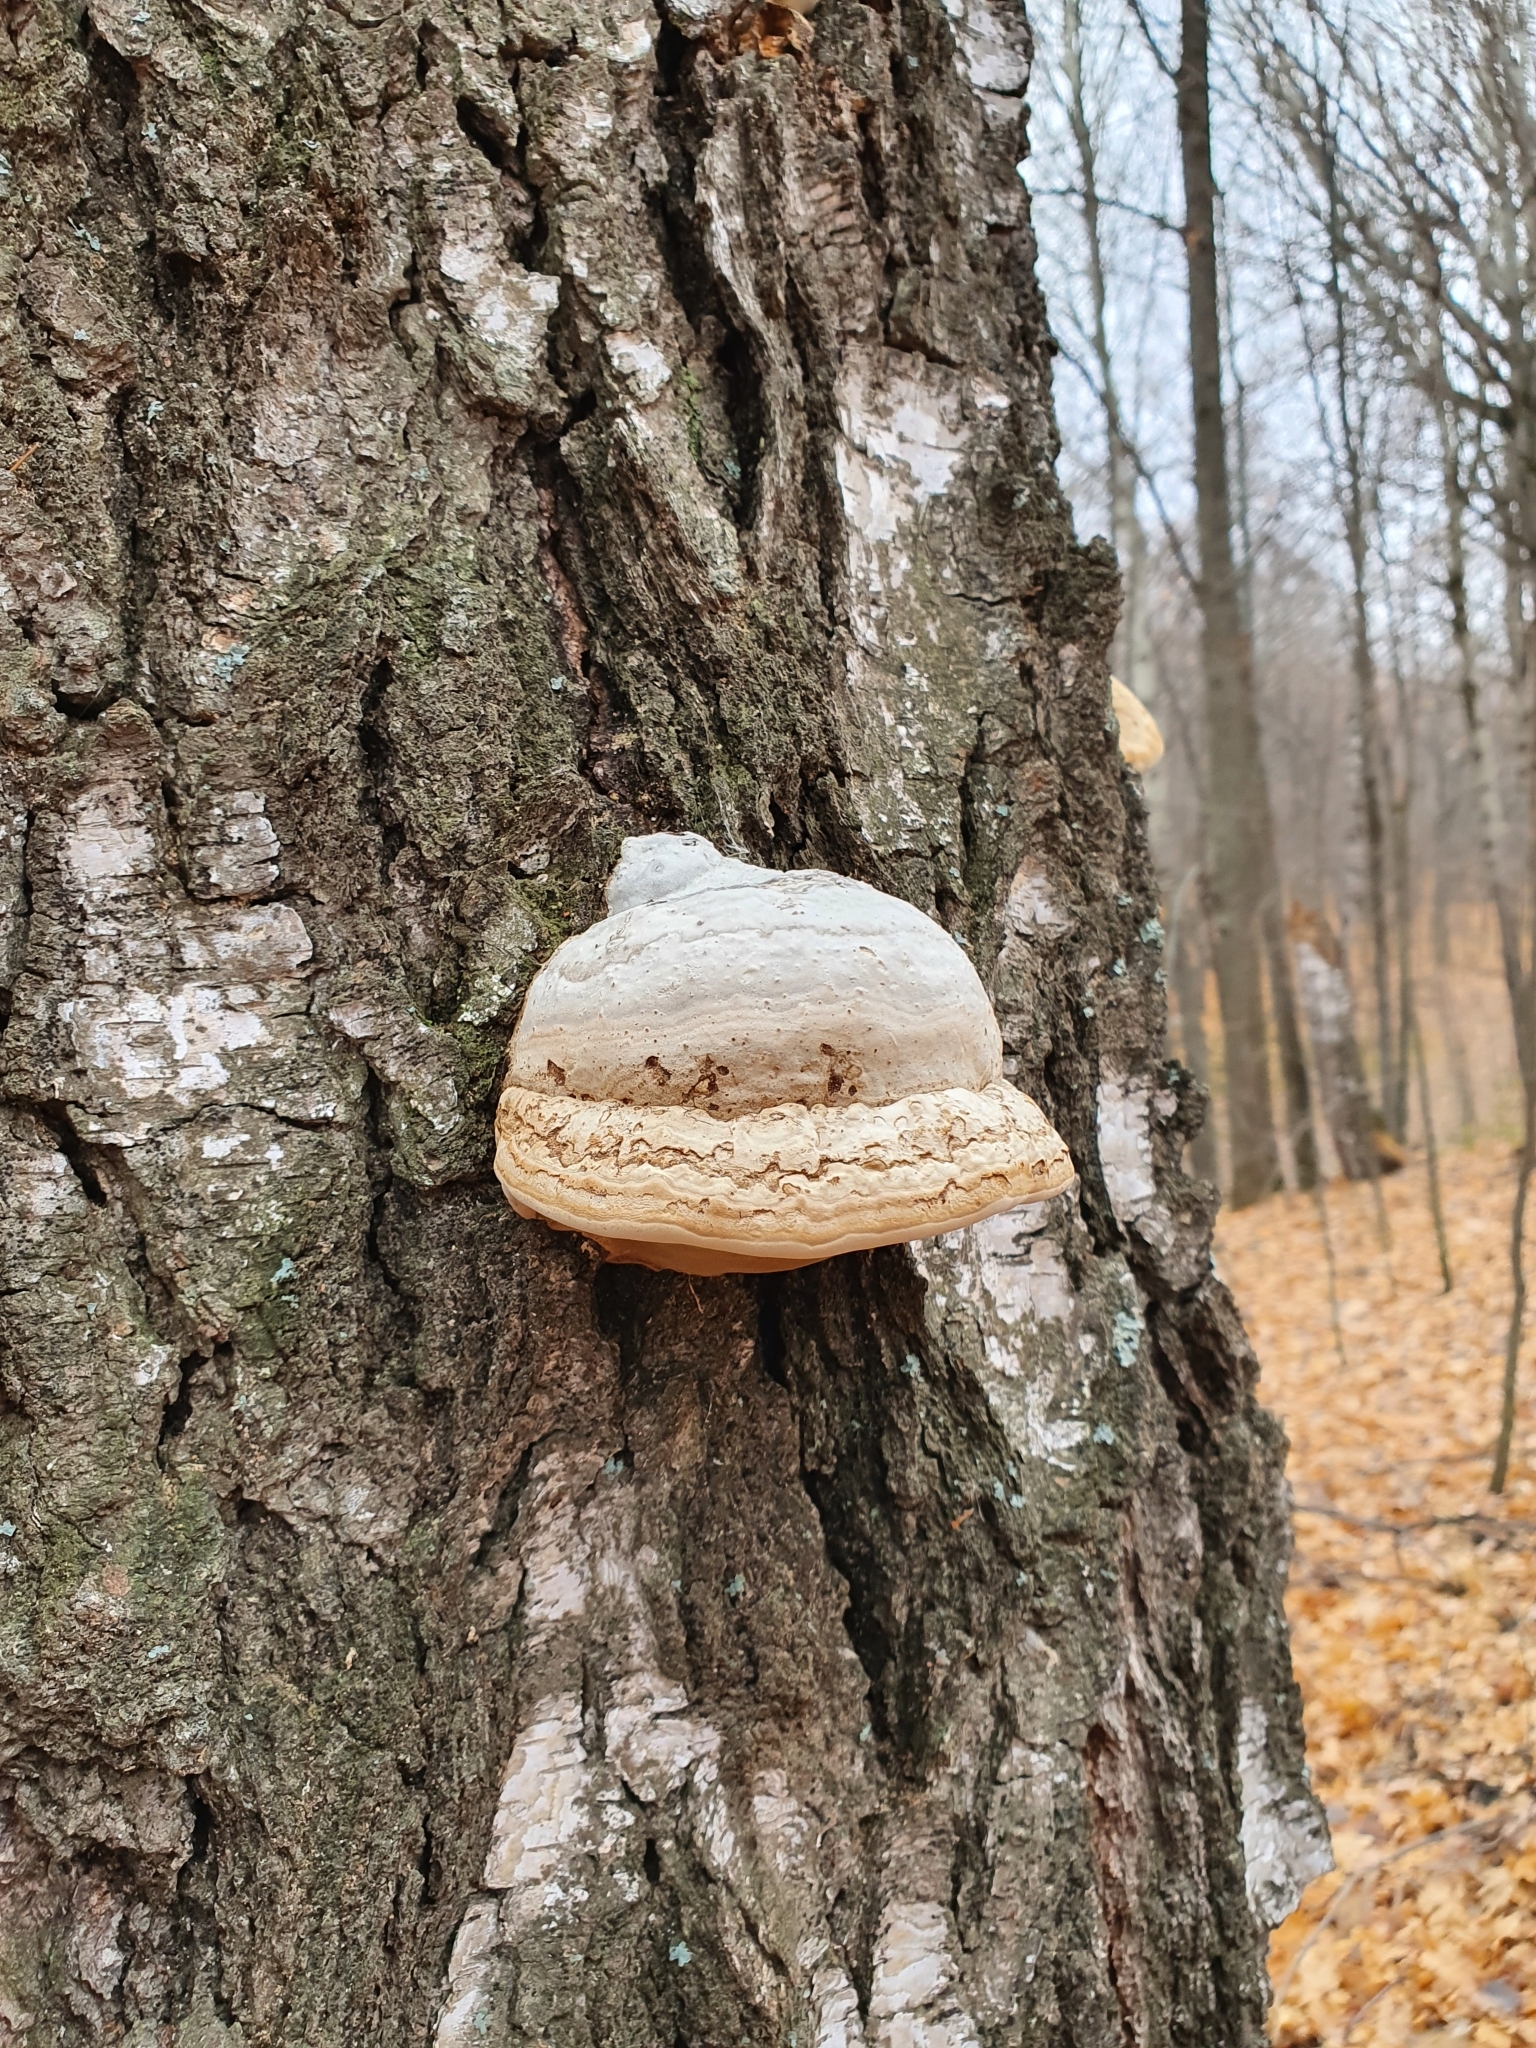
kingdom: Fungi
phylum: Basidiomycota
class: Agaricomycetes
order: Polyporales
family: Polyporaceae
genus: Fomes
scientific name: Fomes fomentarius
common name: Hoof fungus
